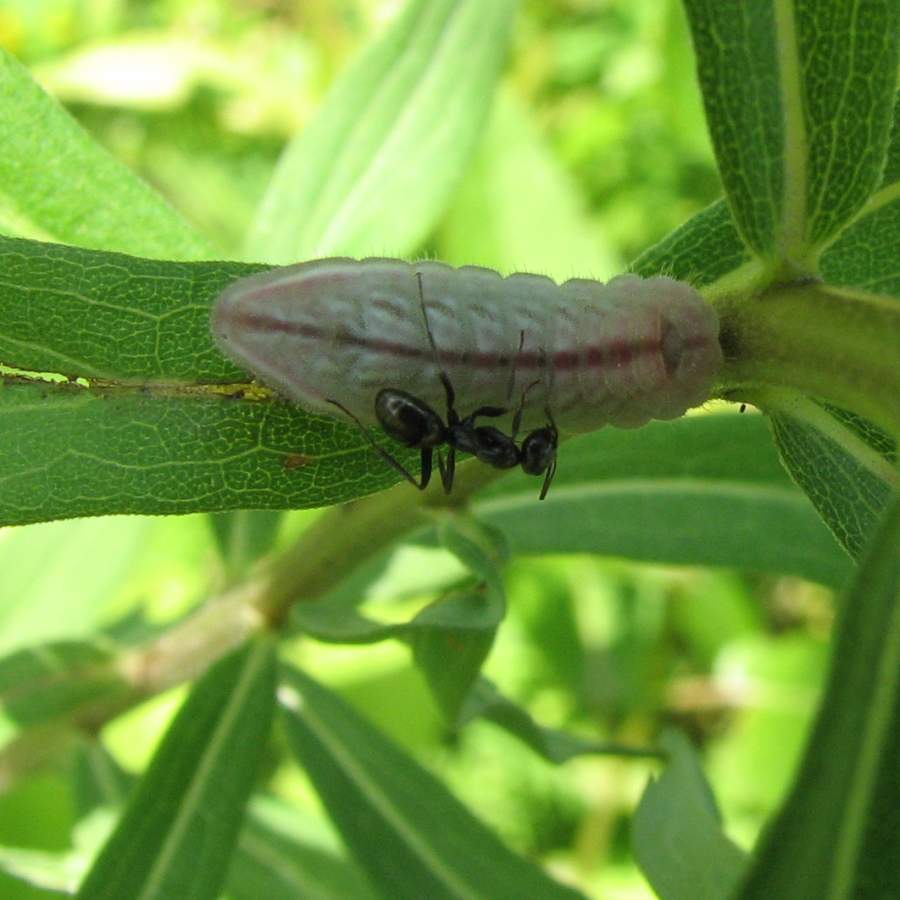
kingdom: Animalia
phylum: Arthropoda
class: Insecta
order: Lepidoptera
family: Lycaenidae
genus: Glaucopsyche
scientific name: Glaucopsyche lygdamus
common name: Silvery blue
